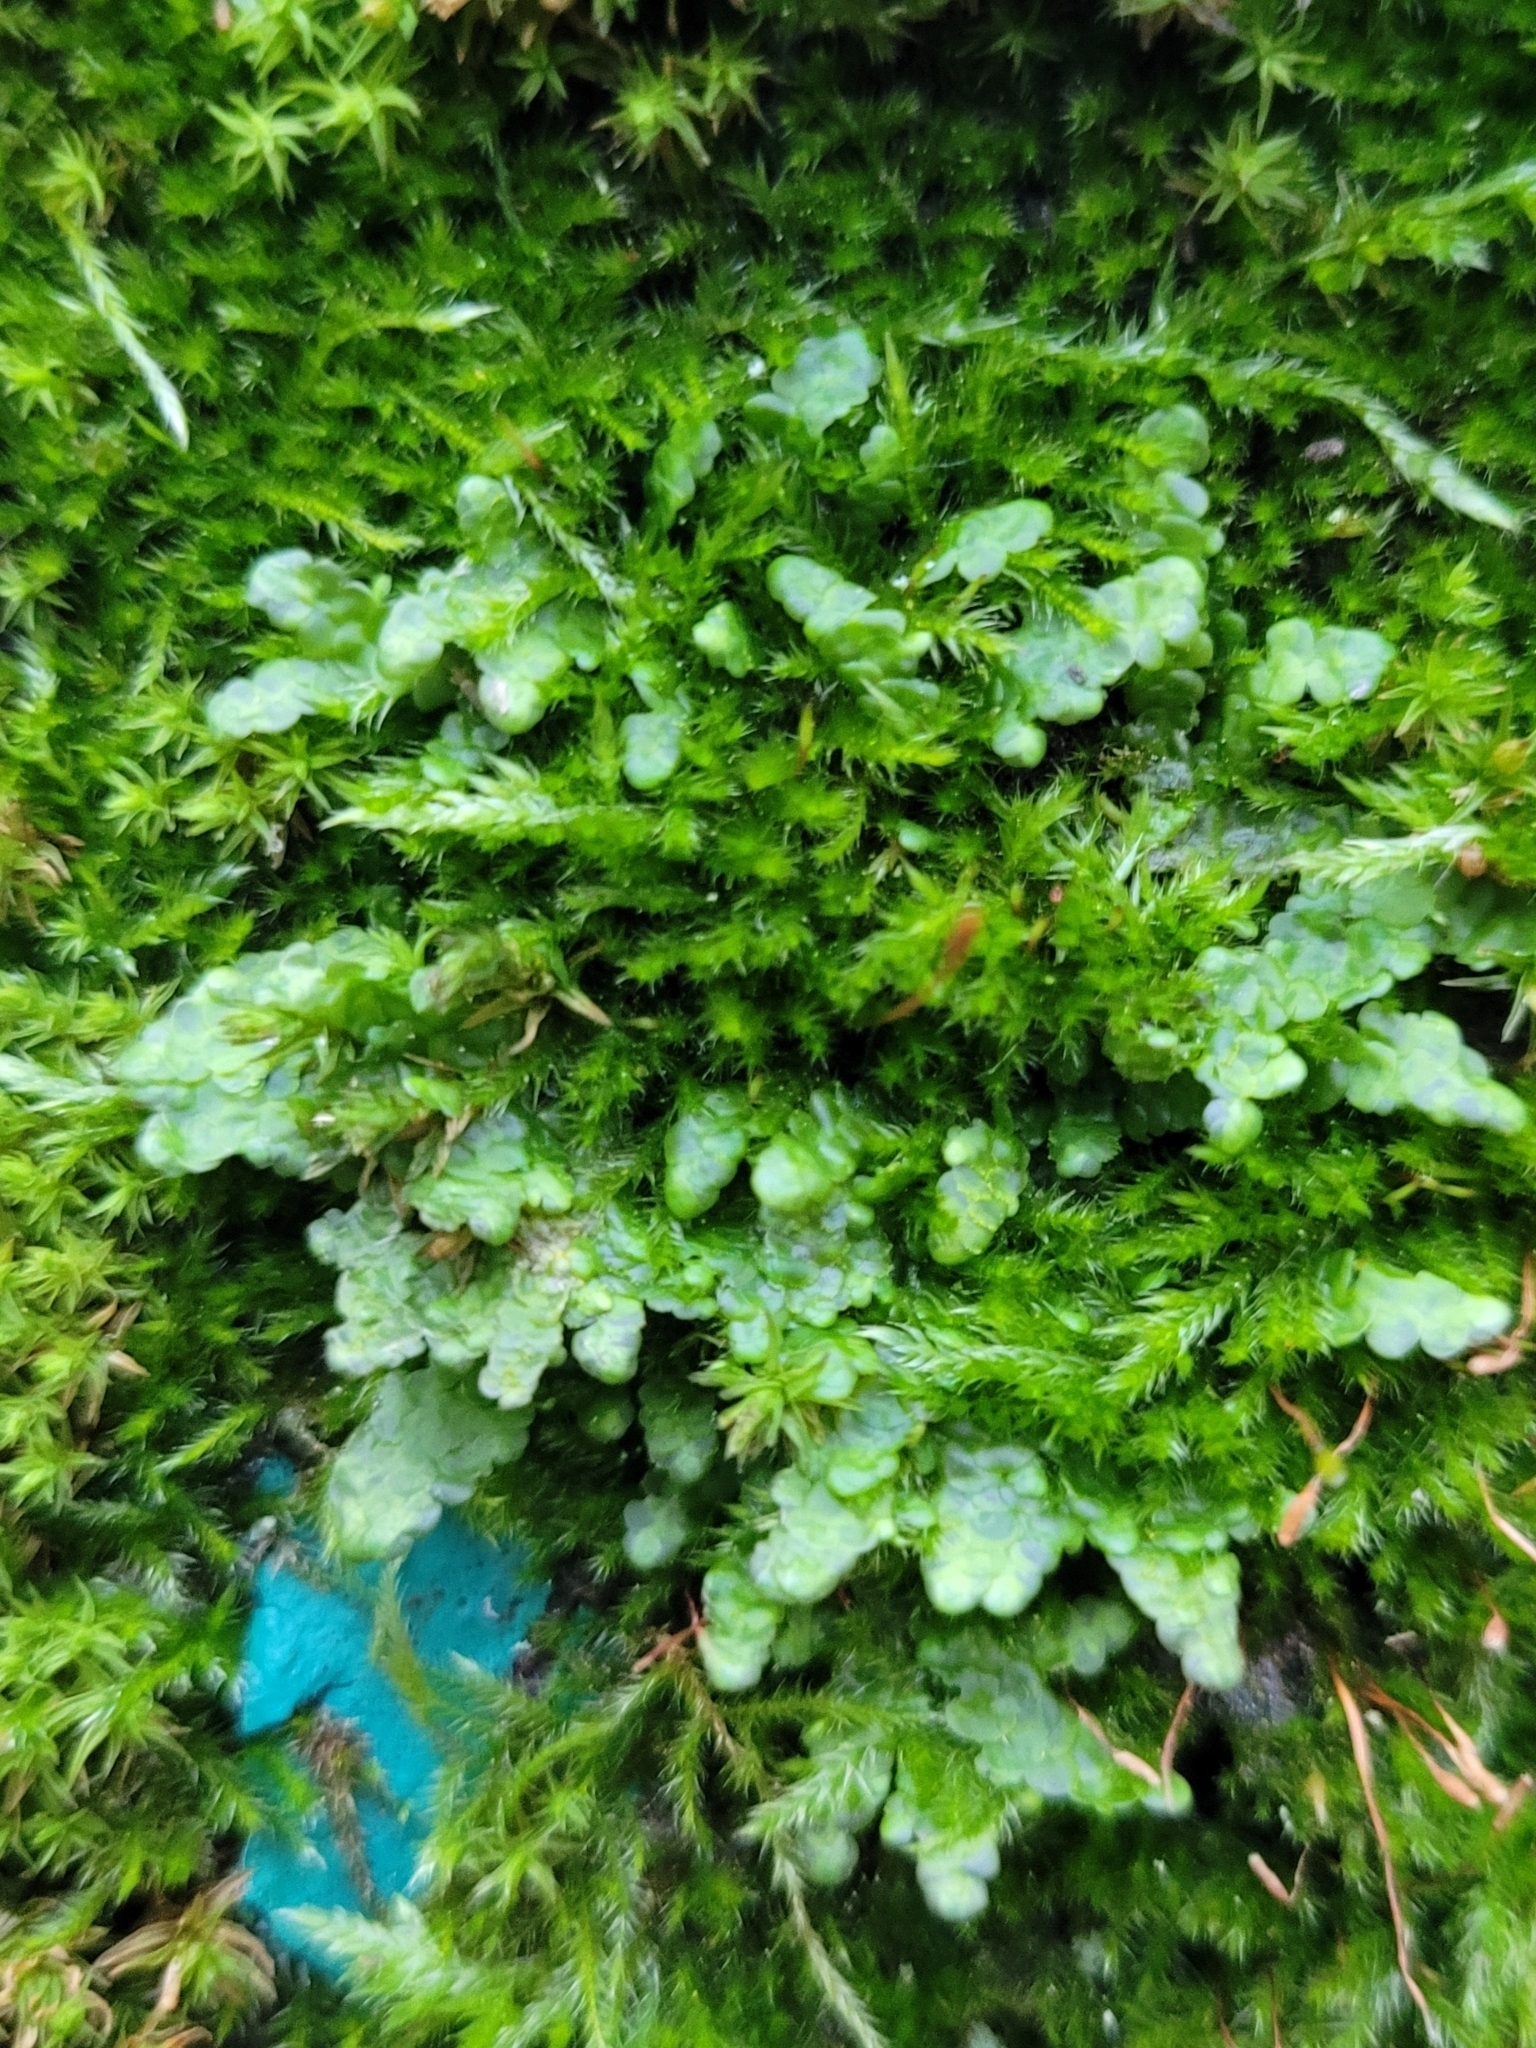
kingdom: Plantae
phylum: Marchantiophyta
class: Jungermanniopsida
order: Porellales
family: Radulaceae
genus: Radula
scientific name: Radula complanata
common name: Flat-leaved scalewort
